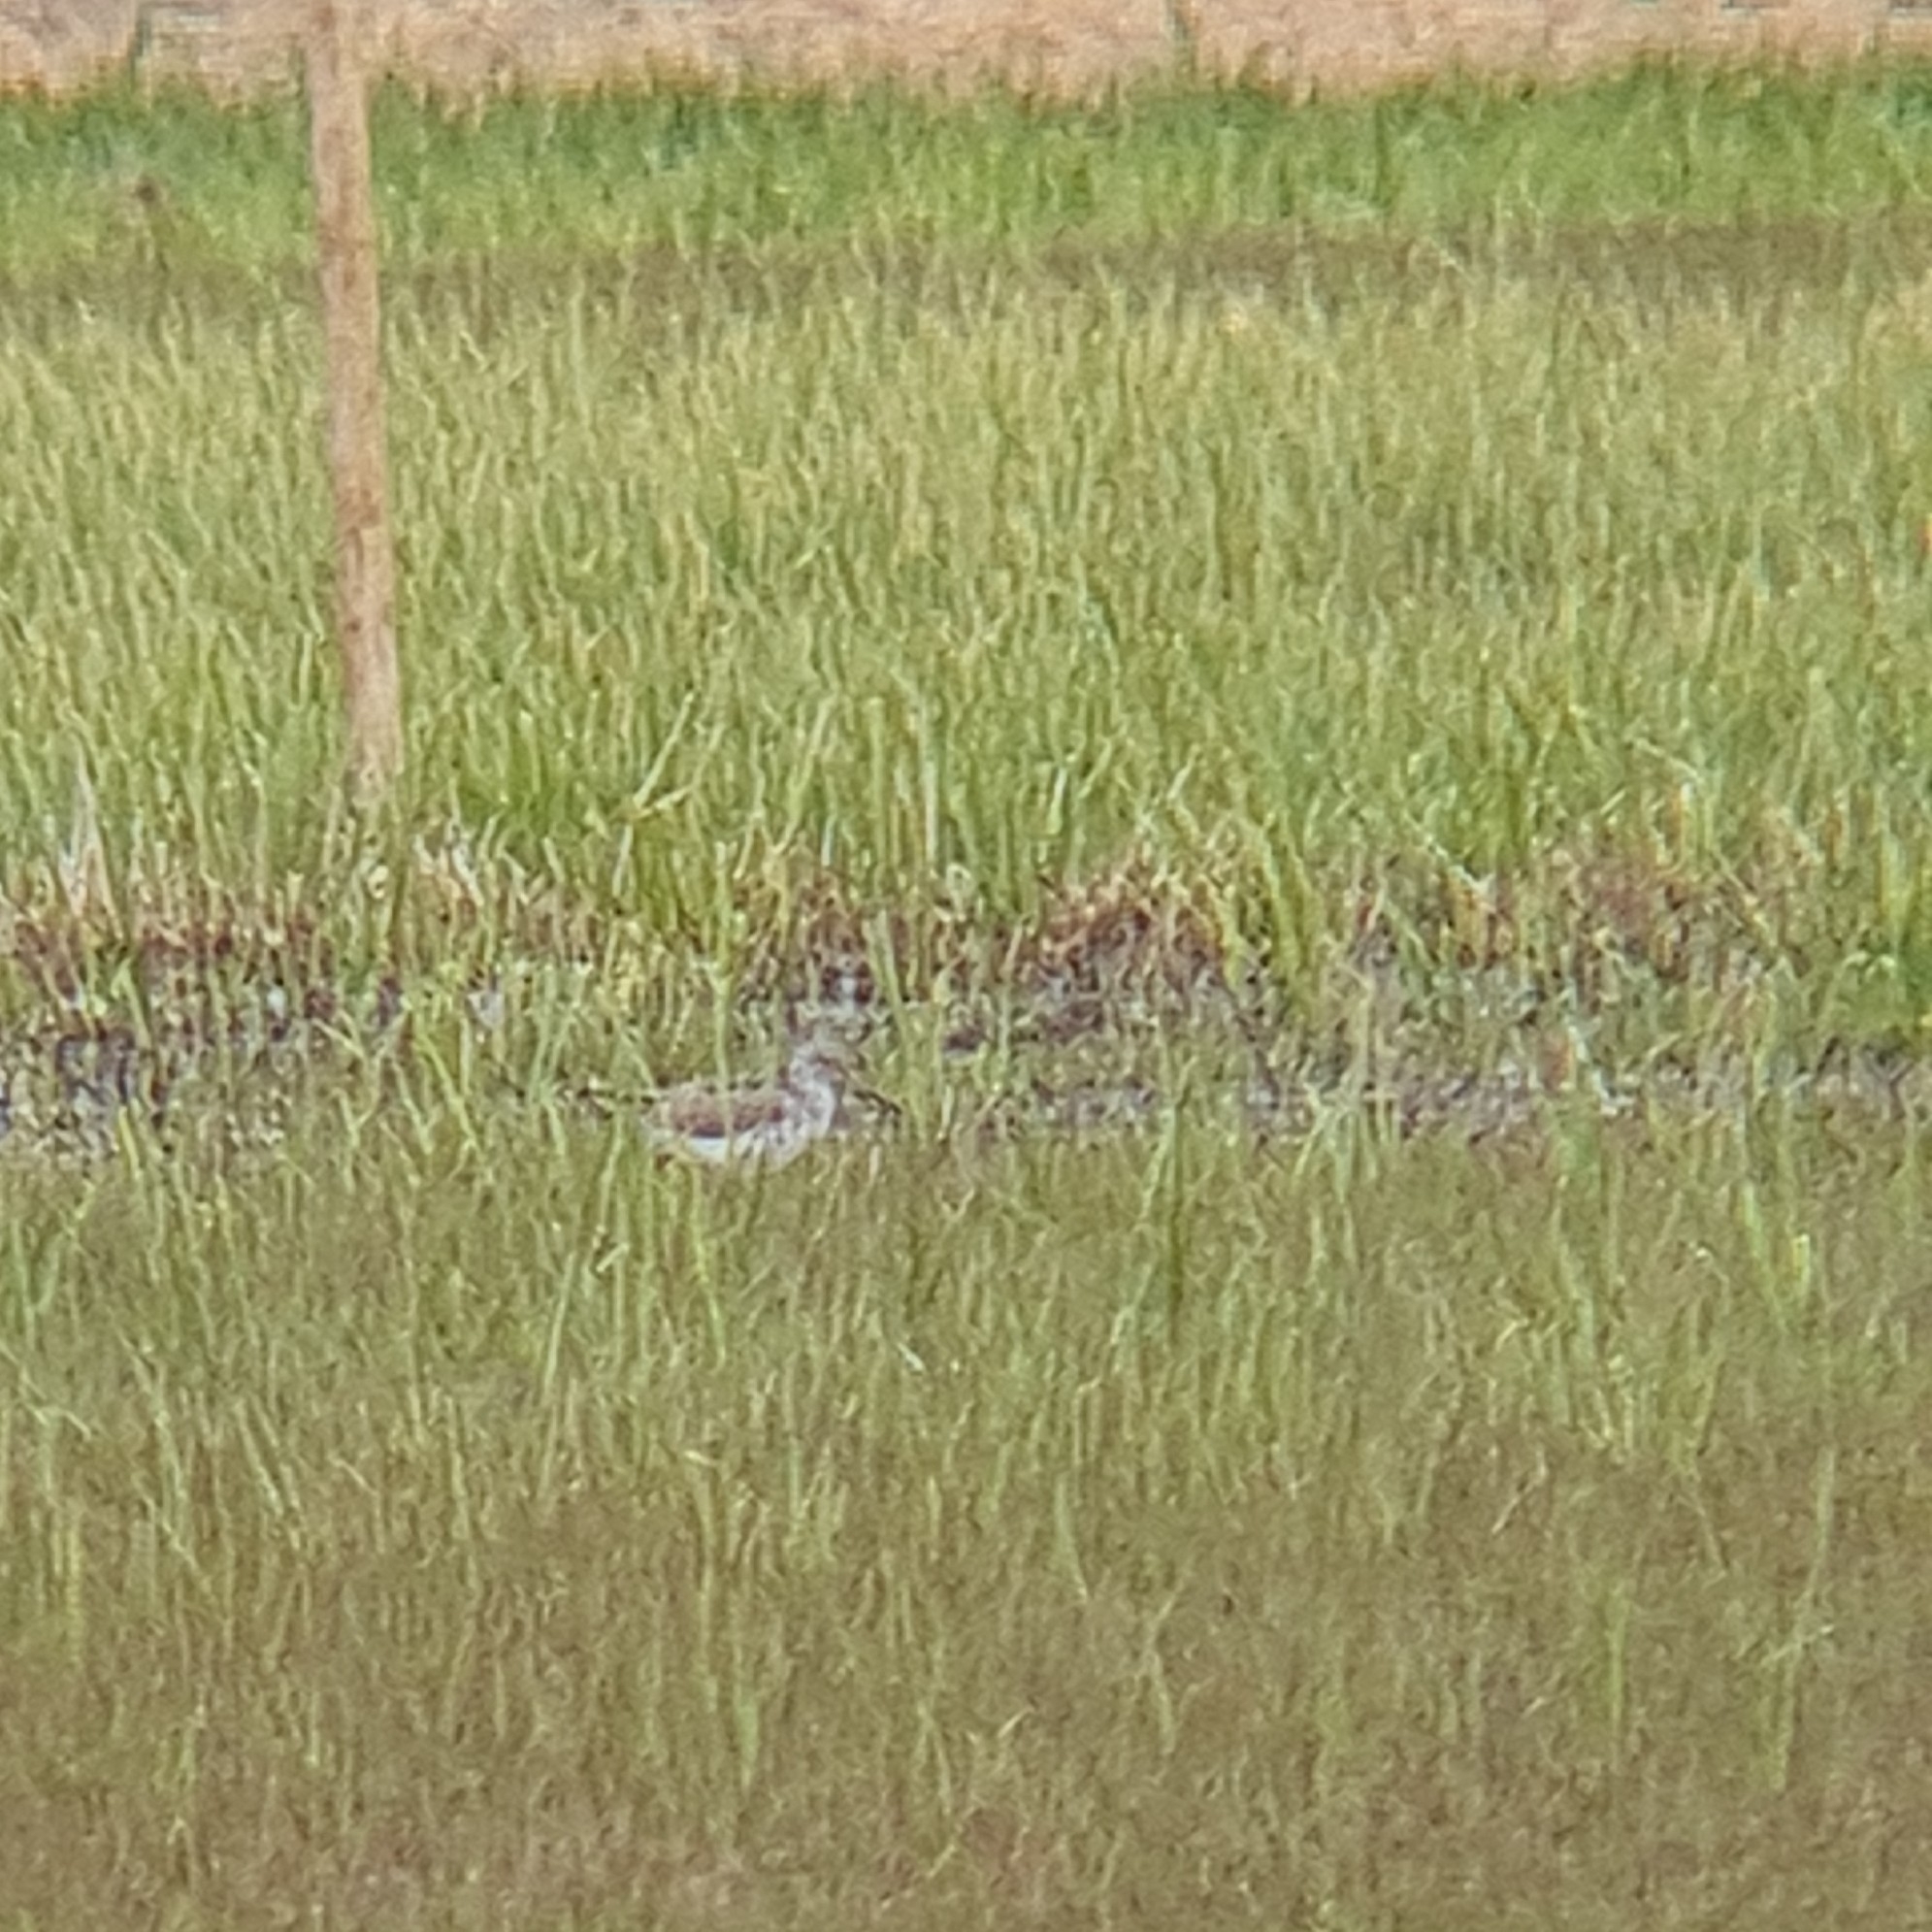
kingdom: Animalia
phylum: Chordata
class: Aves
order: Charadriiformes
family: Scolopacidae
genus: Tringa
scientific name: Tringa nebularia
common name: Common greenshank
